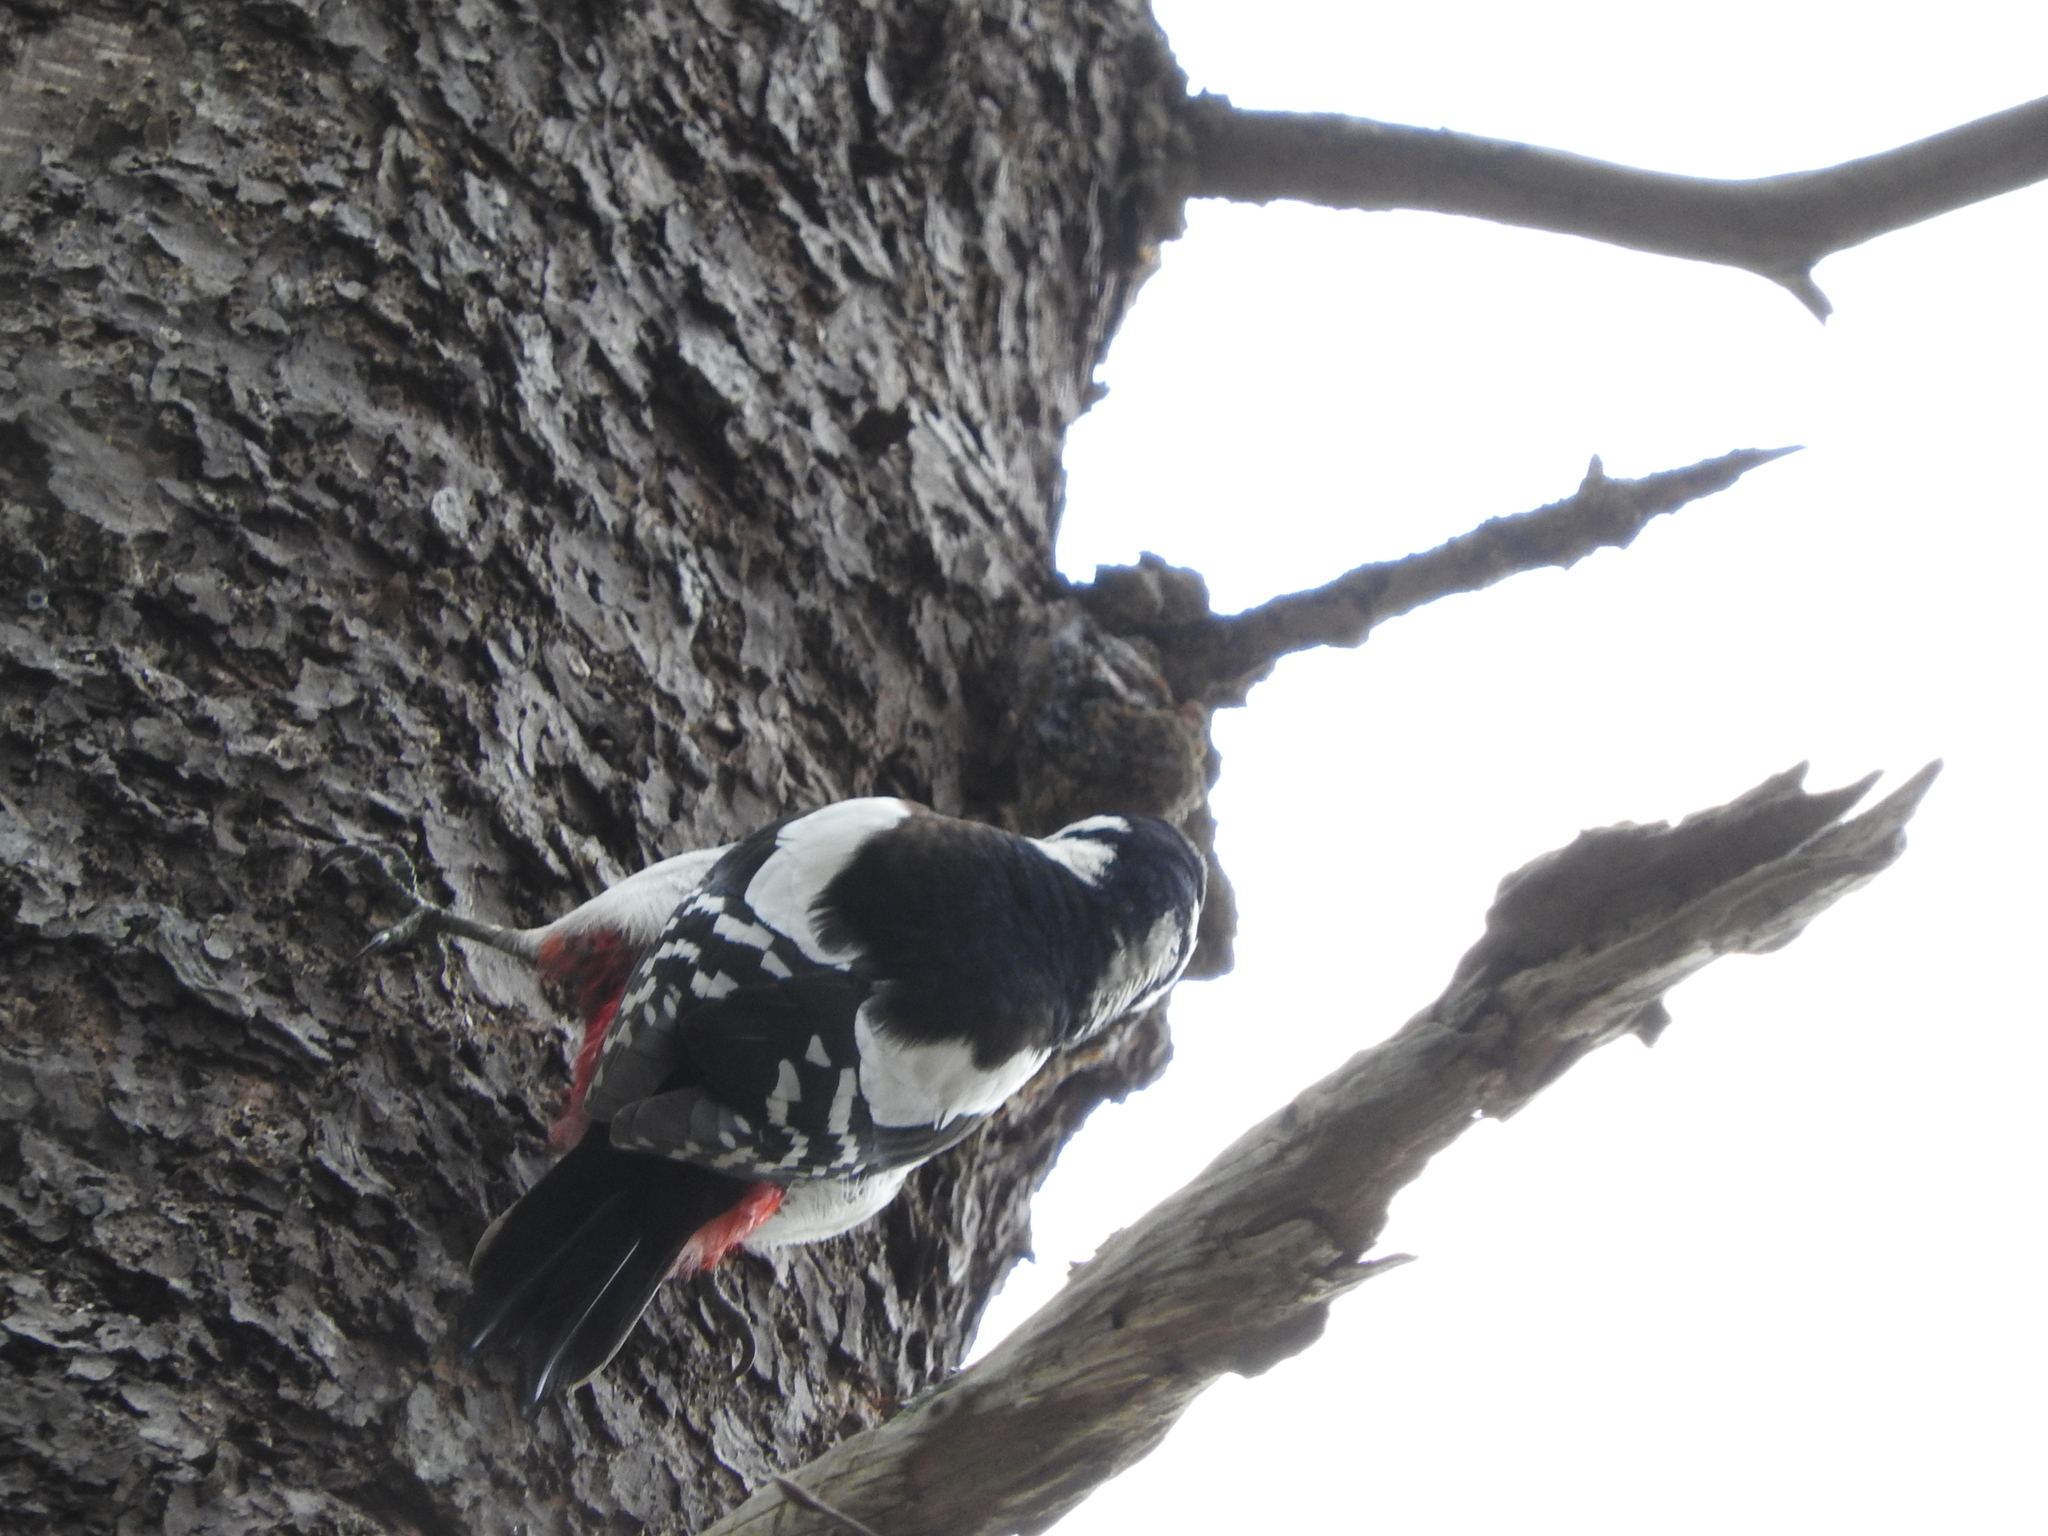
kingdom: Animalia
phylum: Chordata
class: Aves
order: Piciformes
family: Picidae
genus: Dendrocopos
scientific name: Dendrocopos major
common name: Great spotted woodpecker
